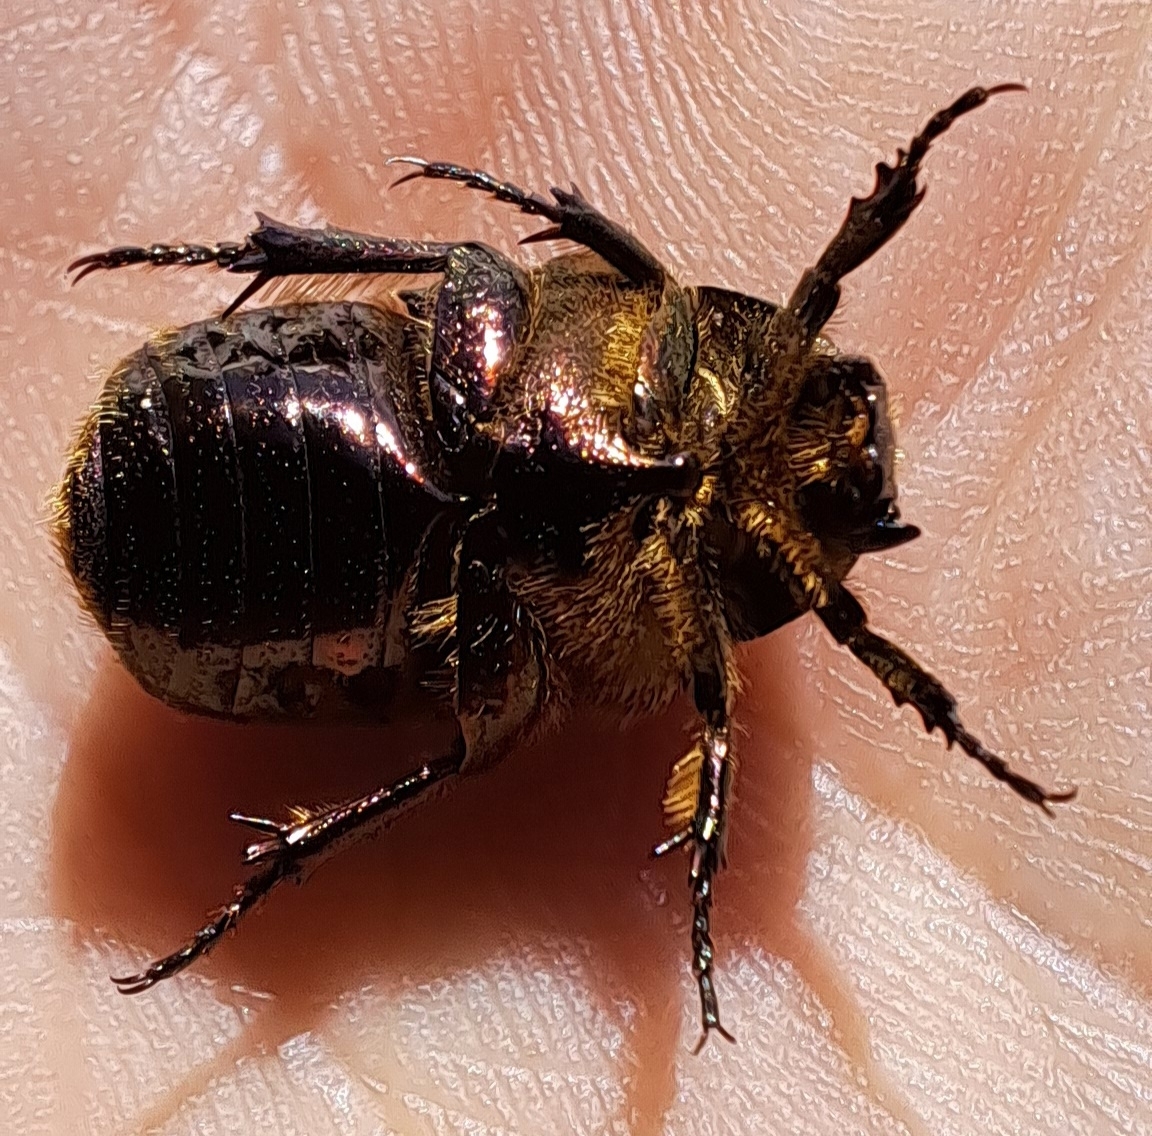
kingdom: Animalia
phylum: Arthropoda
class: Insecta
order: Coleoptera
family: Scarabaeidae
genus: Cetonia
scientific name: Cetonia aurata
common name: Rose chafer
